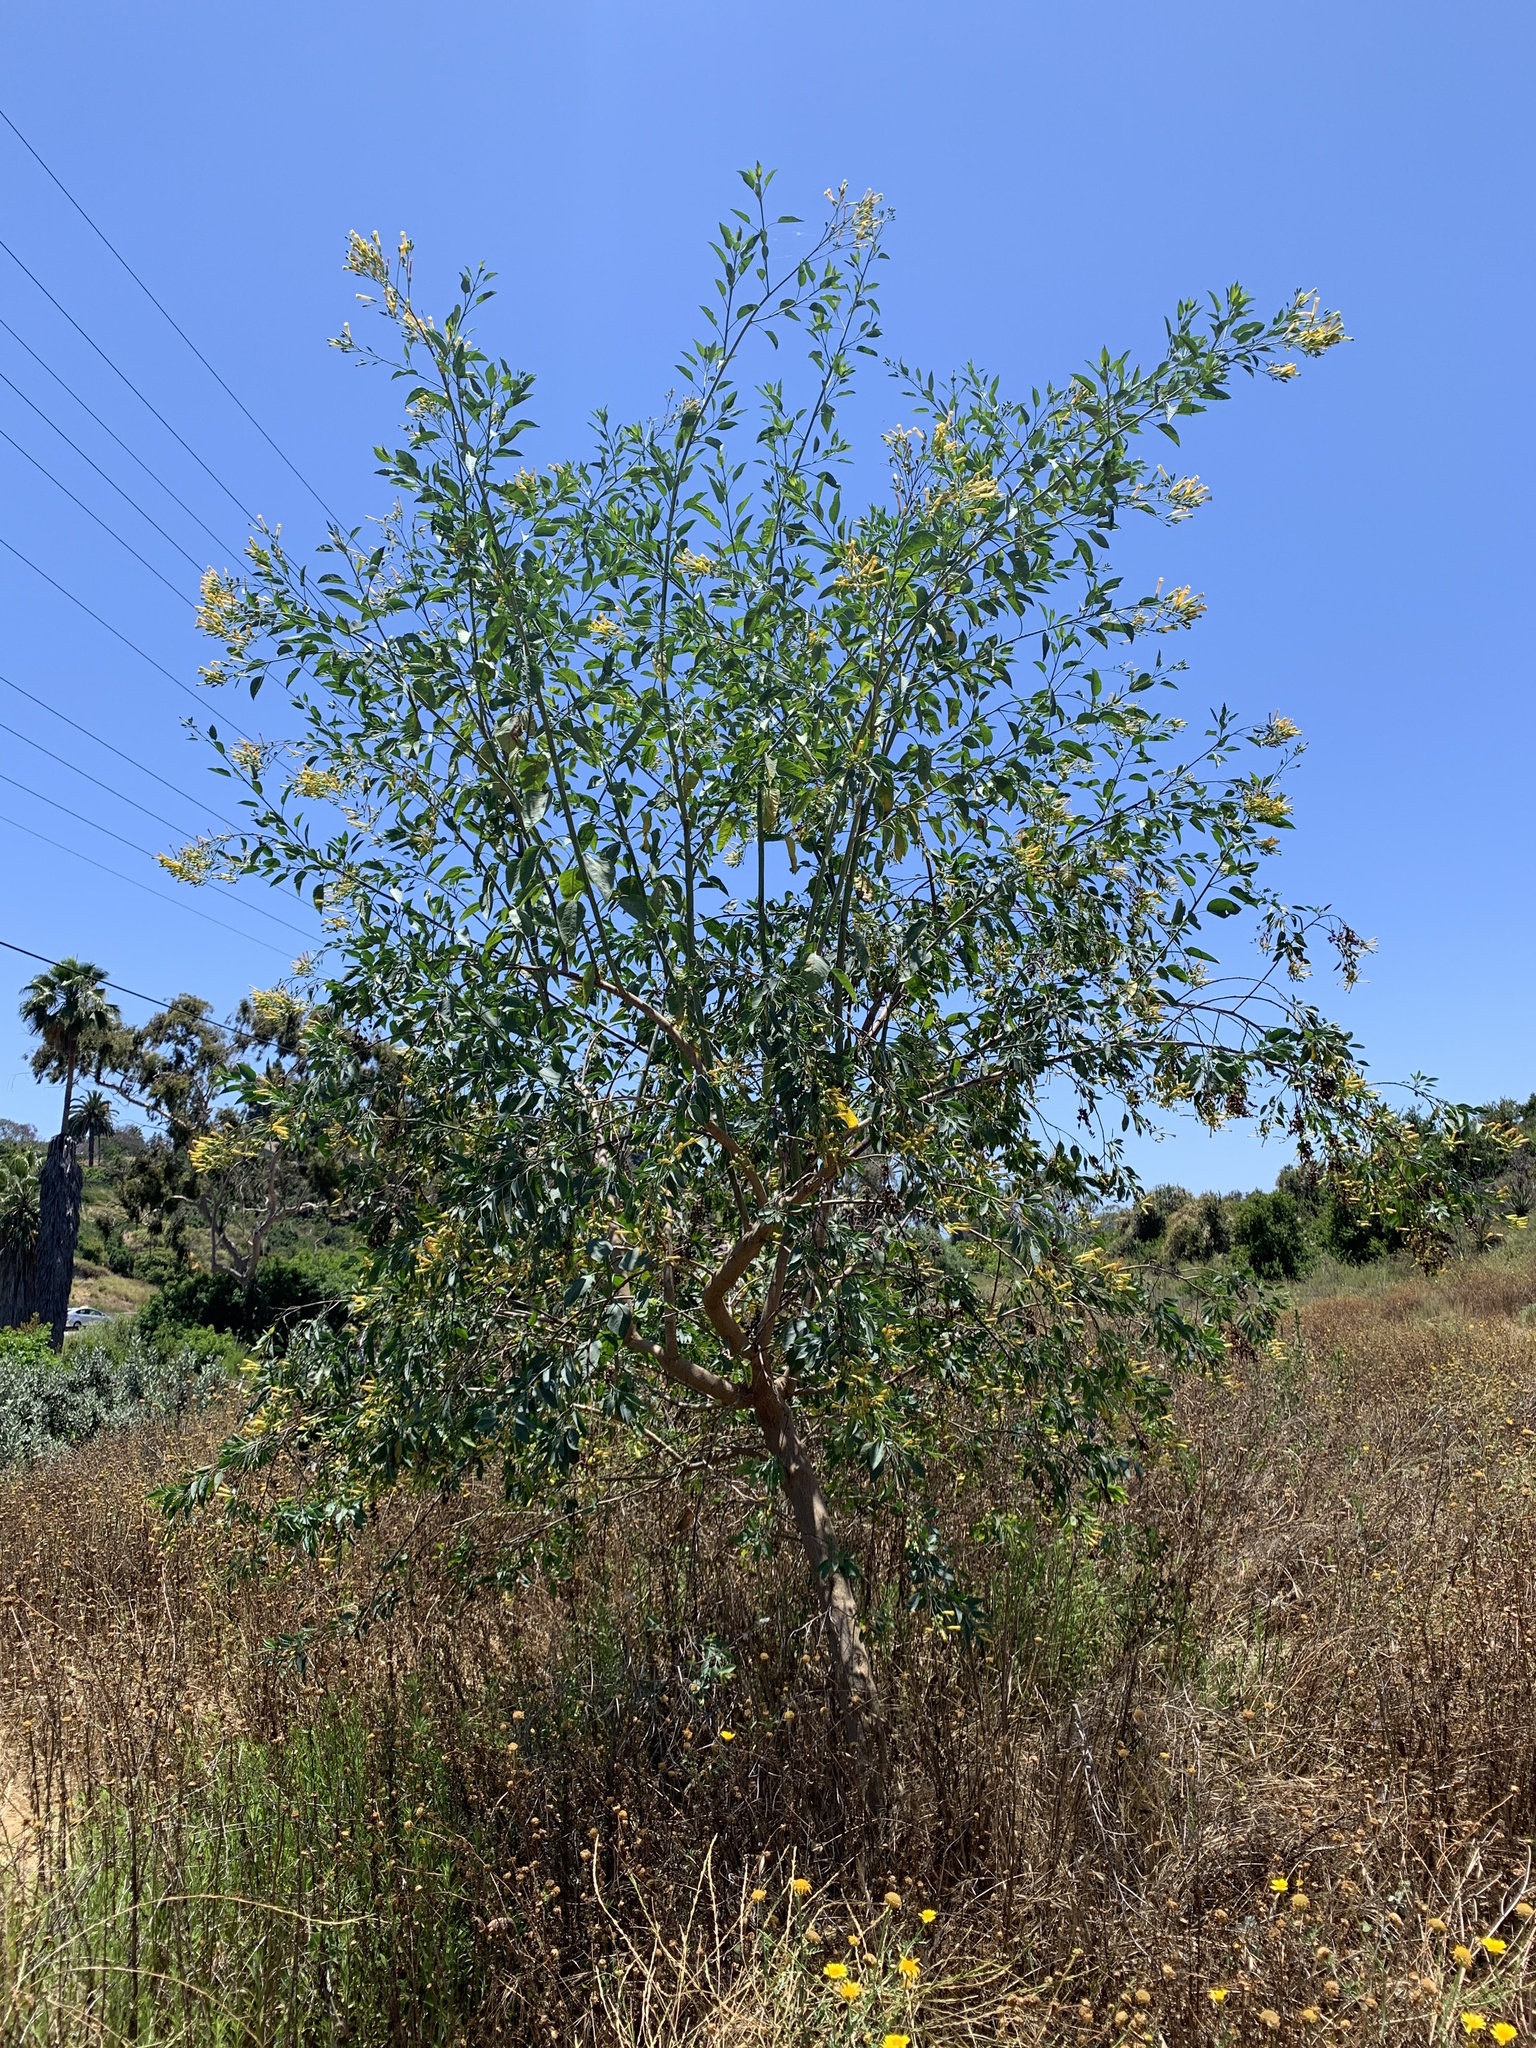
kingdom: Plantae
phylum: Tracheophyta
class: Magnoliopsida
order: Solanales
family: Solanaceae
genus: Nicotiana
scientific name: Nicotiana glauca
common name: Tree tobacco
